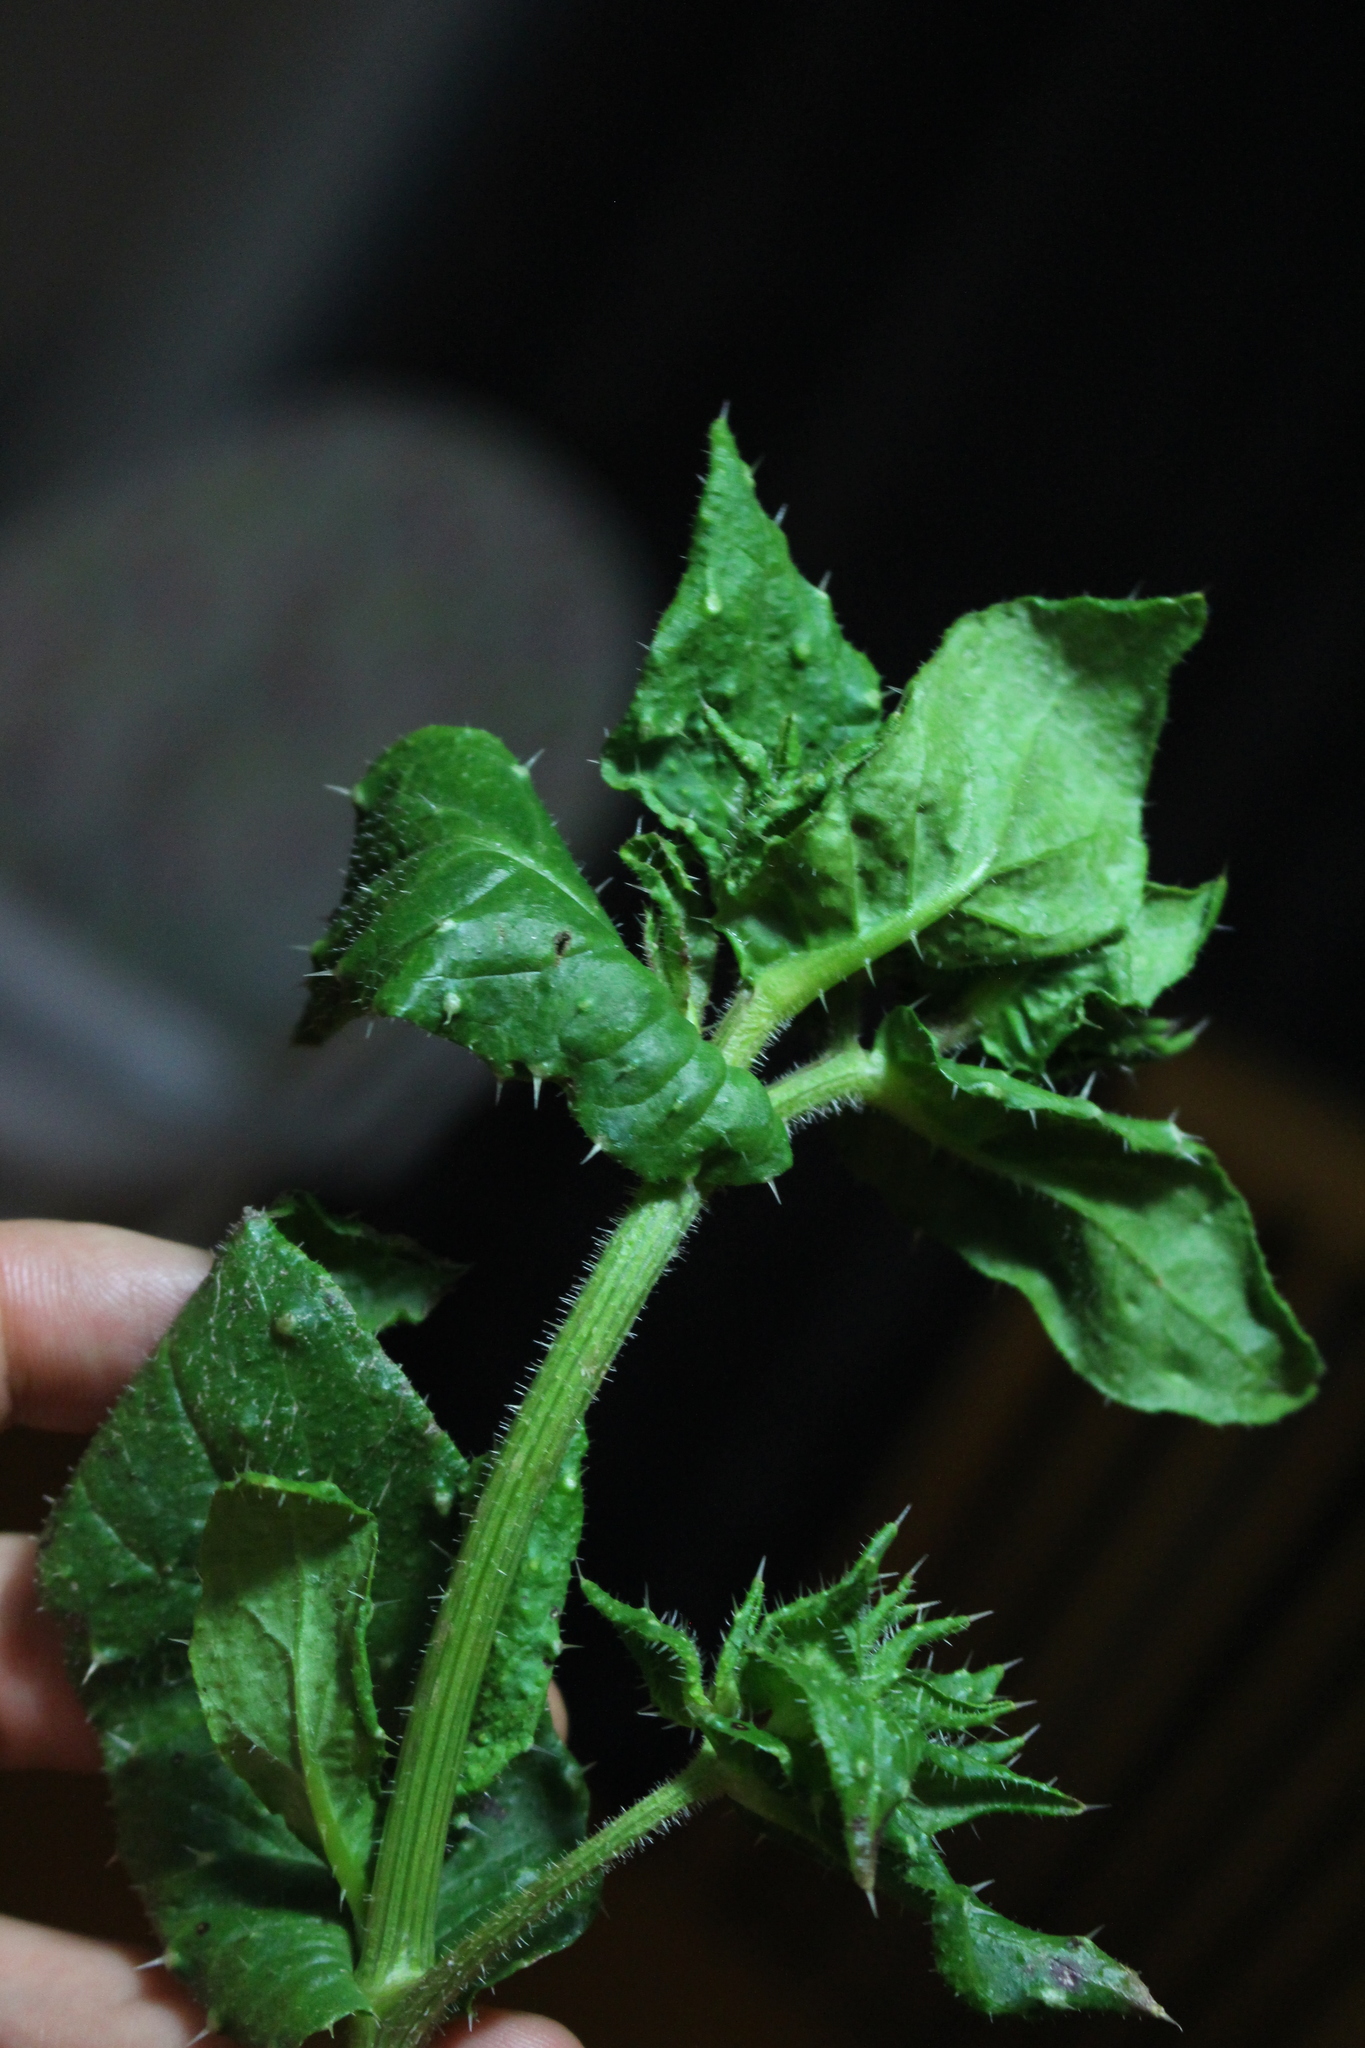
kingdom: Plantae
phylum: Tracheophyta
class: Magnoliopsida
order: Asterales
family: Asteraceae
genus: Helminthotheca
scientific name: Helminthotheca echioides
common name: Ox-tongue
